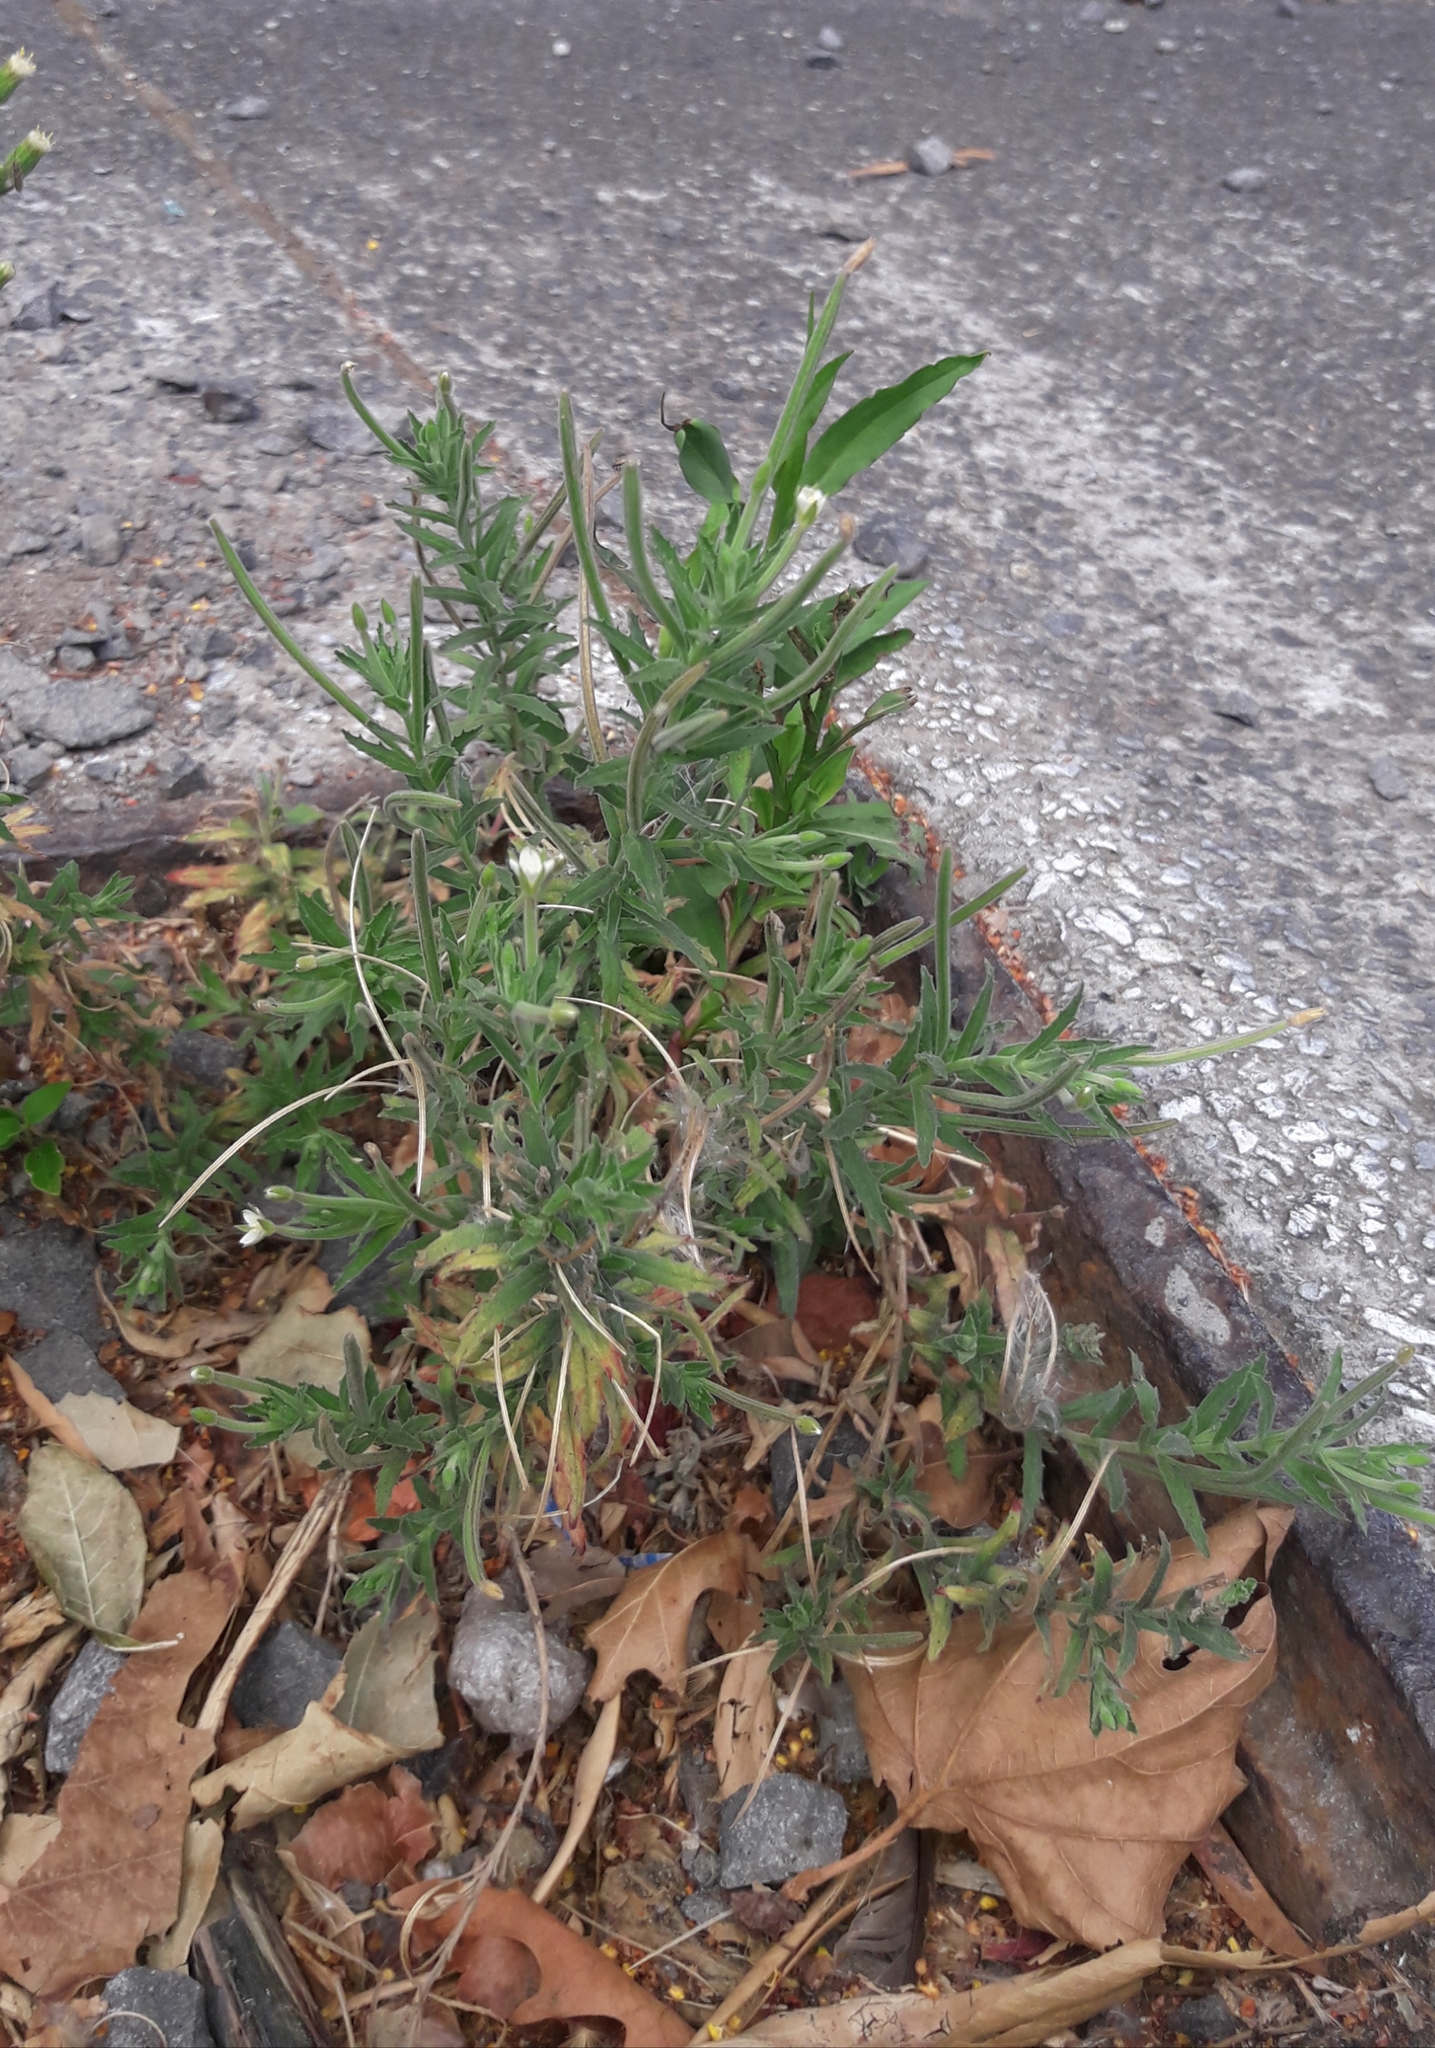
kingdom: Plantae
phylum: Tracheophyta
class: Magnoliopsida
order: Myrtales
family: Onagraceae
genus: Epilobium
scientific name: Epilobium hirtigerum
